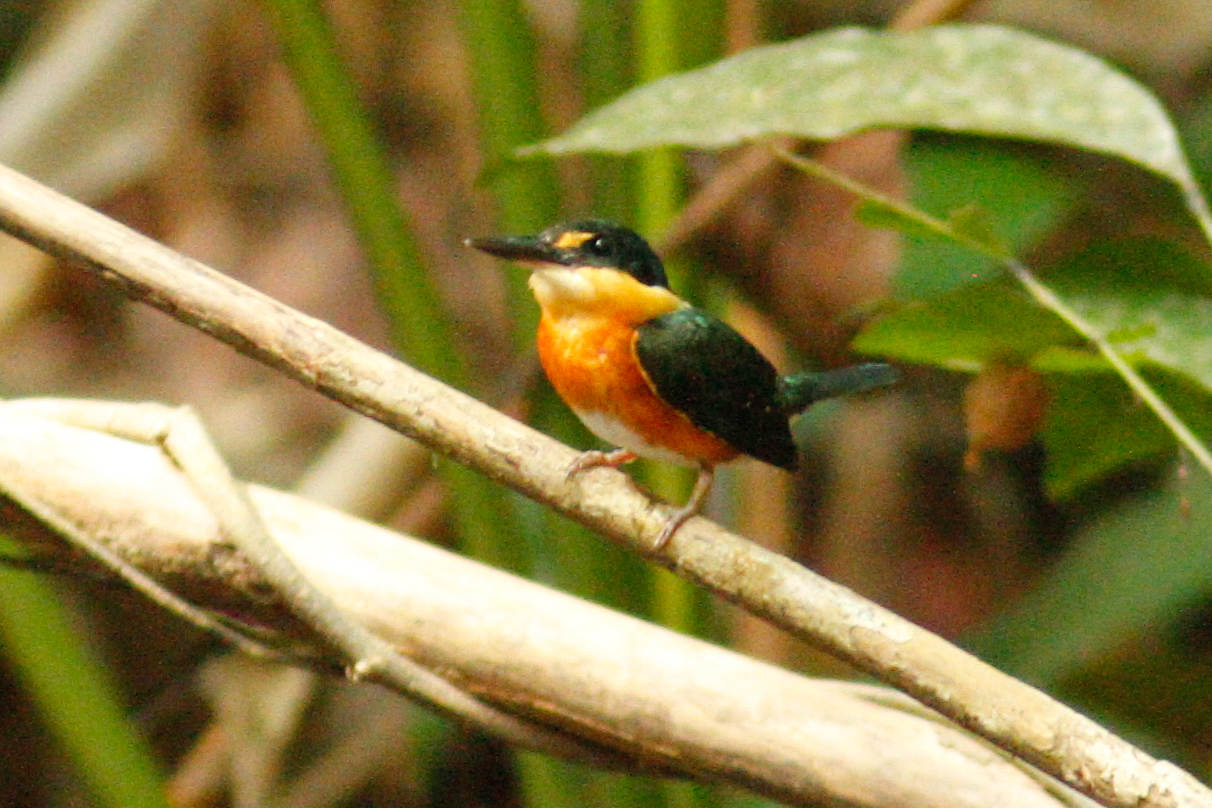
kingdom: Animalia
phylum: Chordata
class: Aves
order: Coraciiformes
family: Alcedinidae
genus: Chloroceryle
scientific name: Chloroceryle aenea
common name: American pygmy kingfisher
